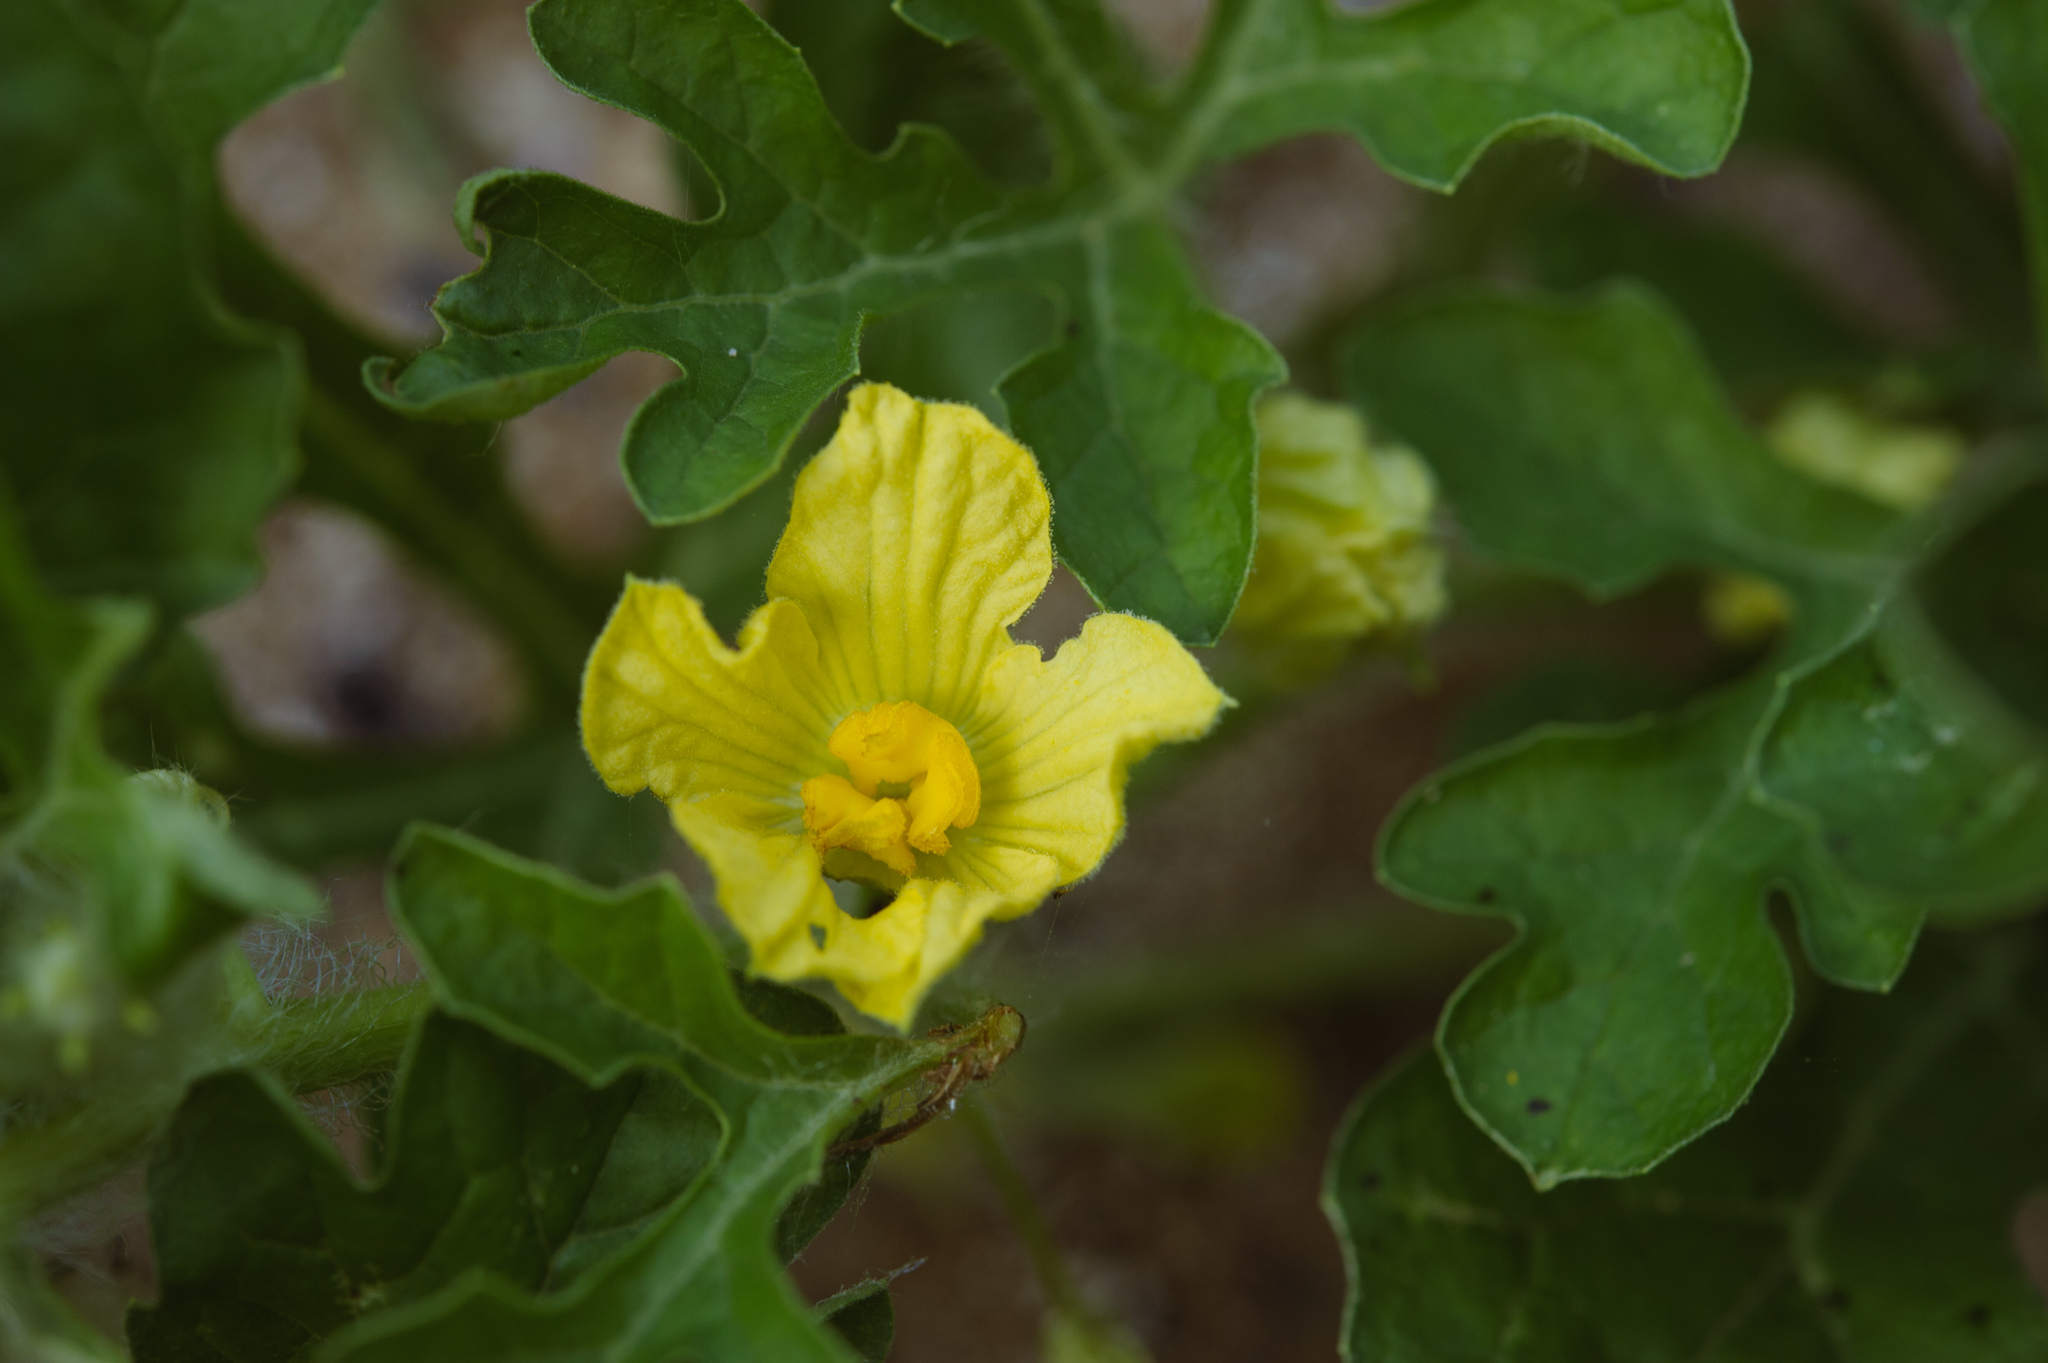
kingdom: Plantae
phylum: Tracheophyta
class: Magnoliopsida
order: Cucurbitales
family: Cucurbitaceae
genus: Citrullus
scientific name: Citrullus lanatus
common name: Watermelon
